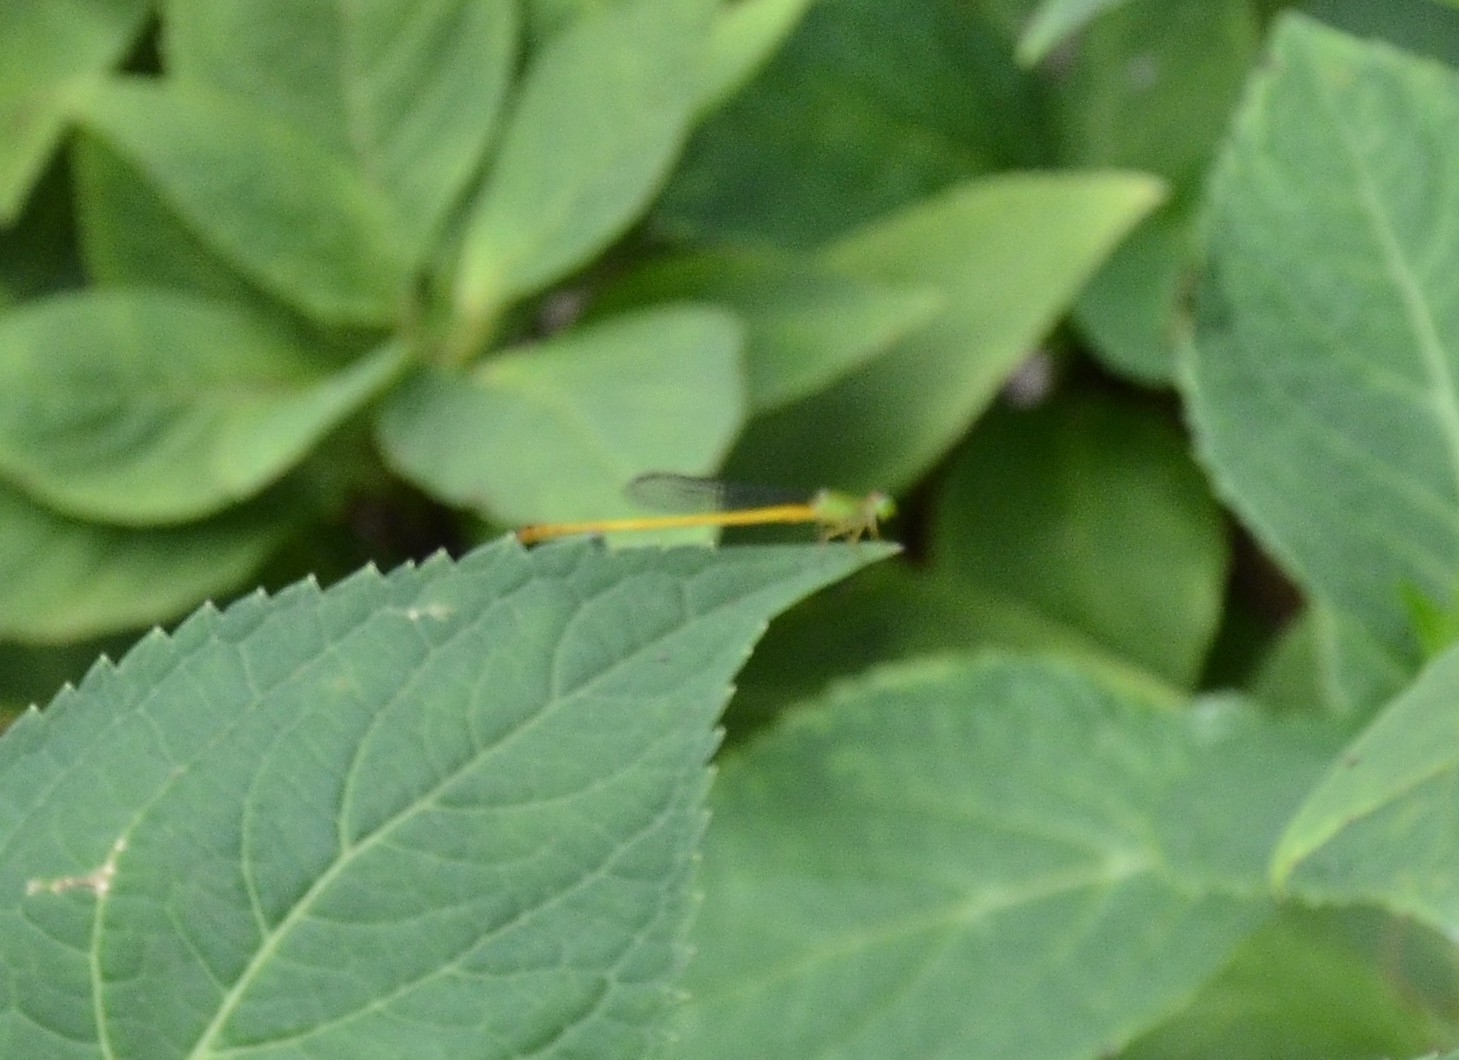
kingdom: Animalia
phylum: Arthropoda
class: Insecta
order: Odonata
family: Coenagrionidae
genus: Ceriagrion
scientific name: Ceriagrion coromandelianum
